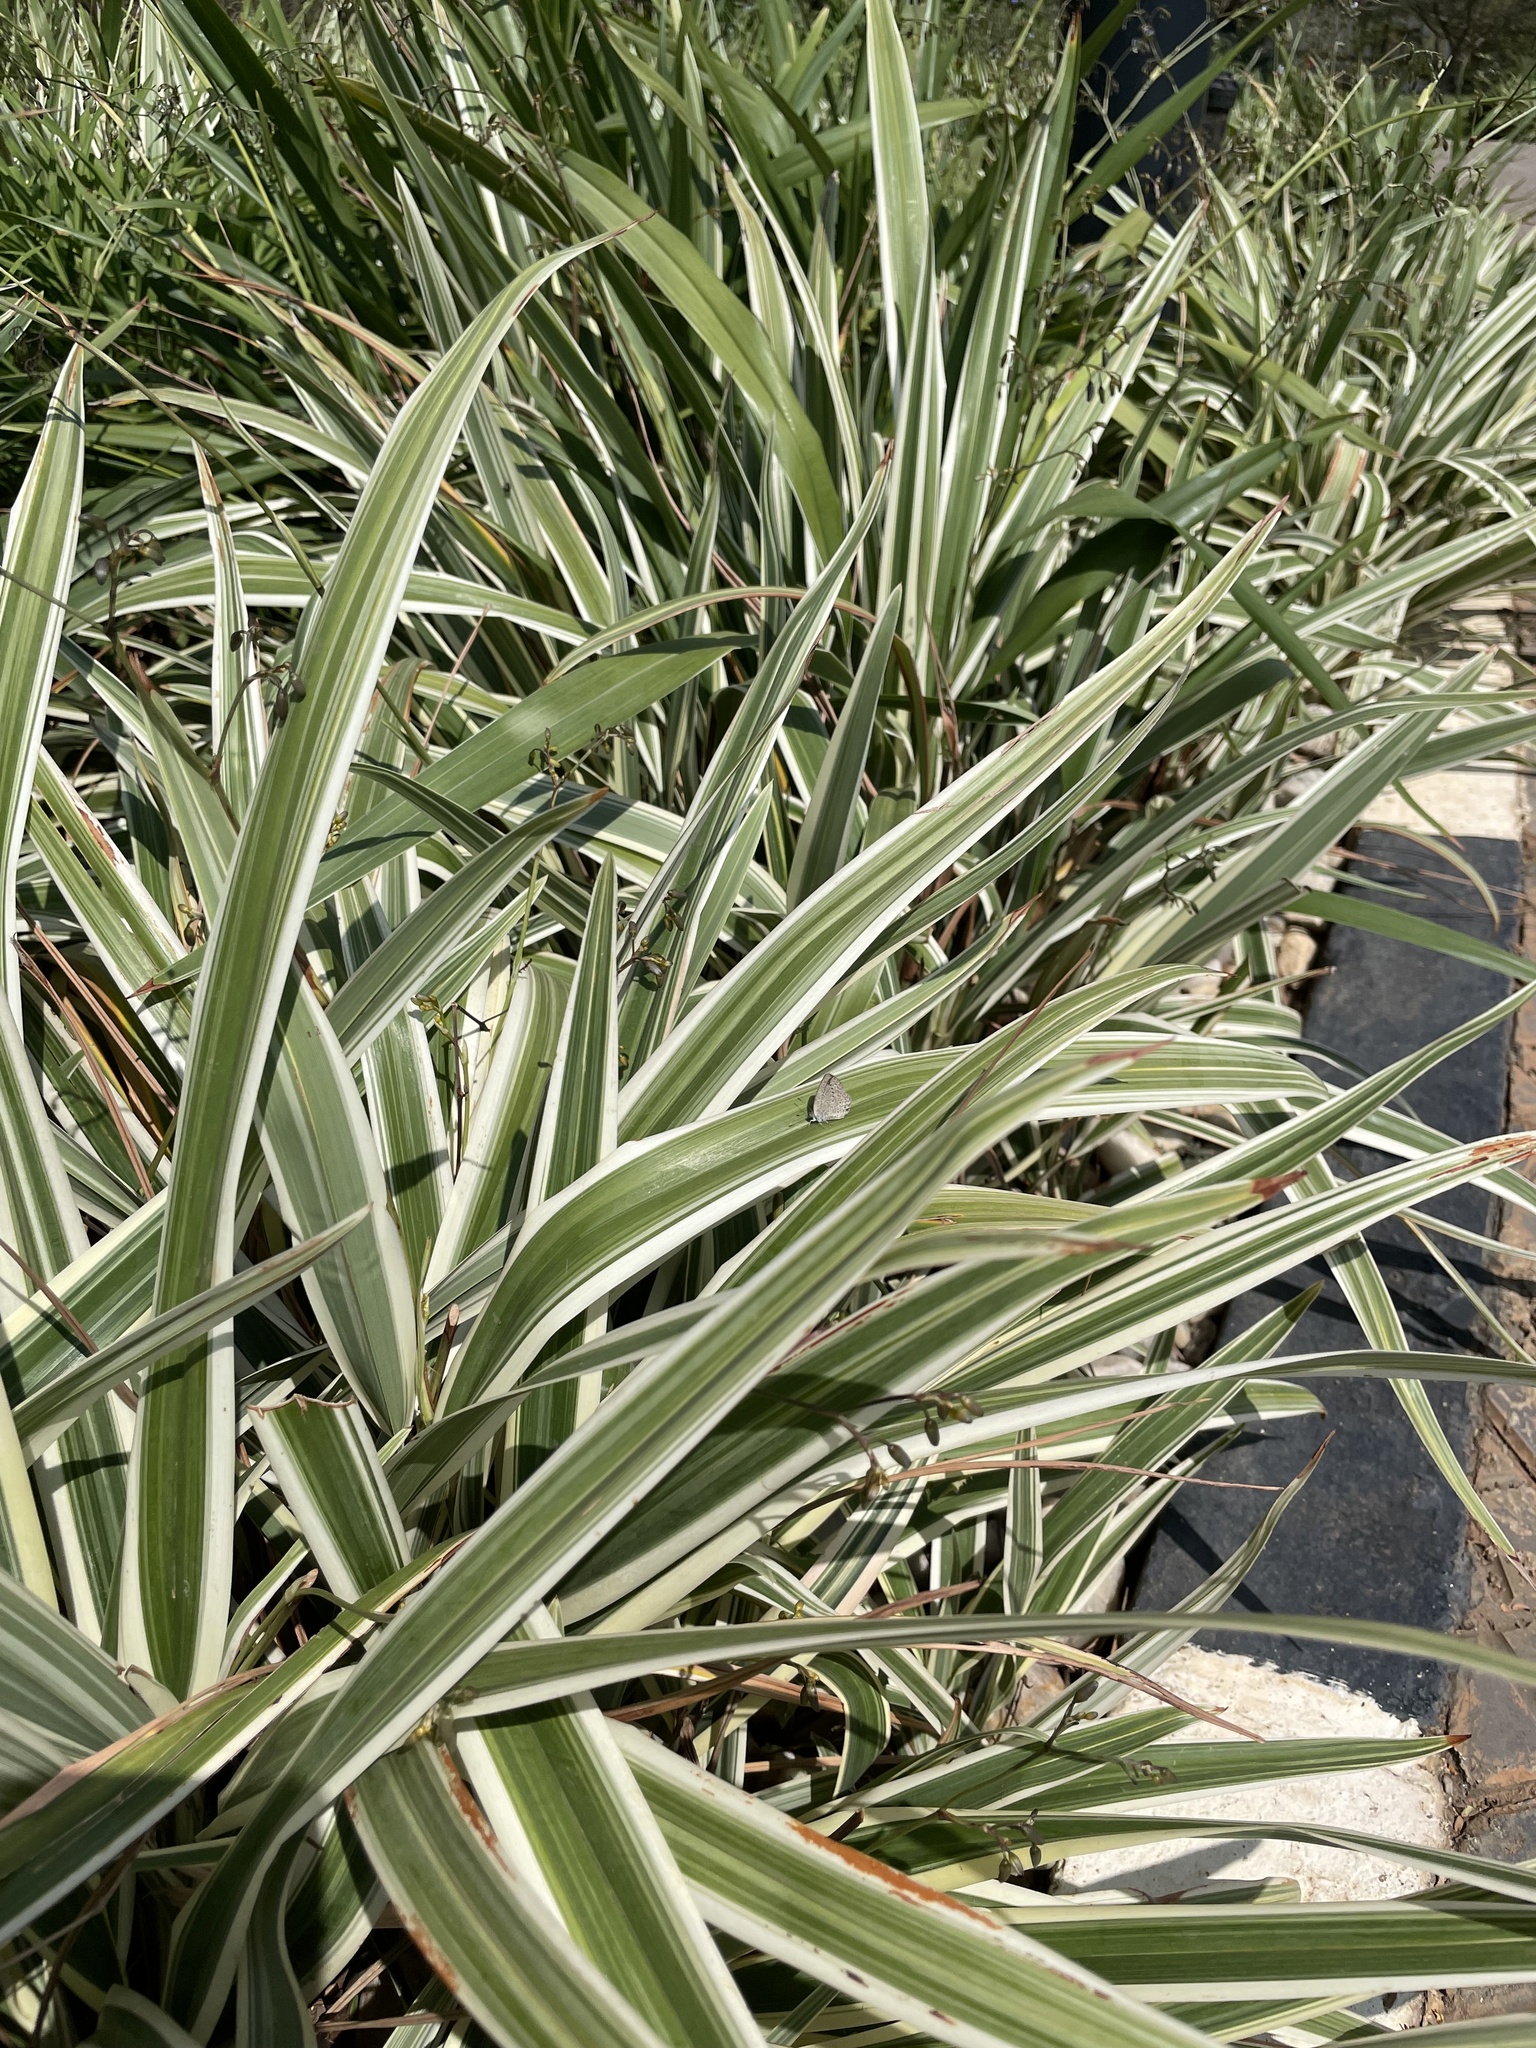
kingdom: Animalia
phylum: Arthropoda
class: Insecta
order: Lepidoptera
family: Lycaenidae
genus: Zizeeria
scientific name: Zizeeria knysna
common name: African grass blue
